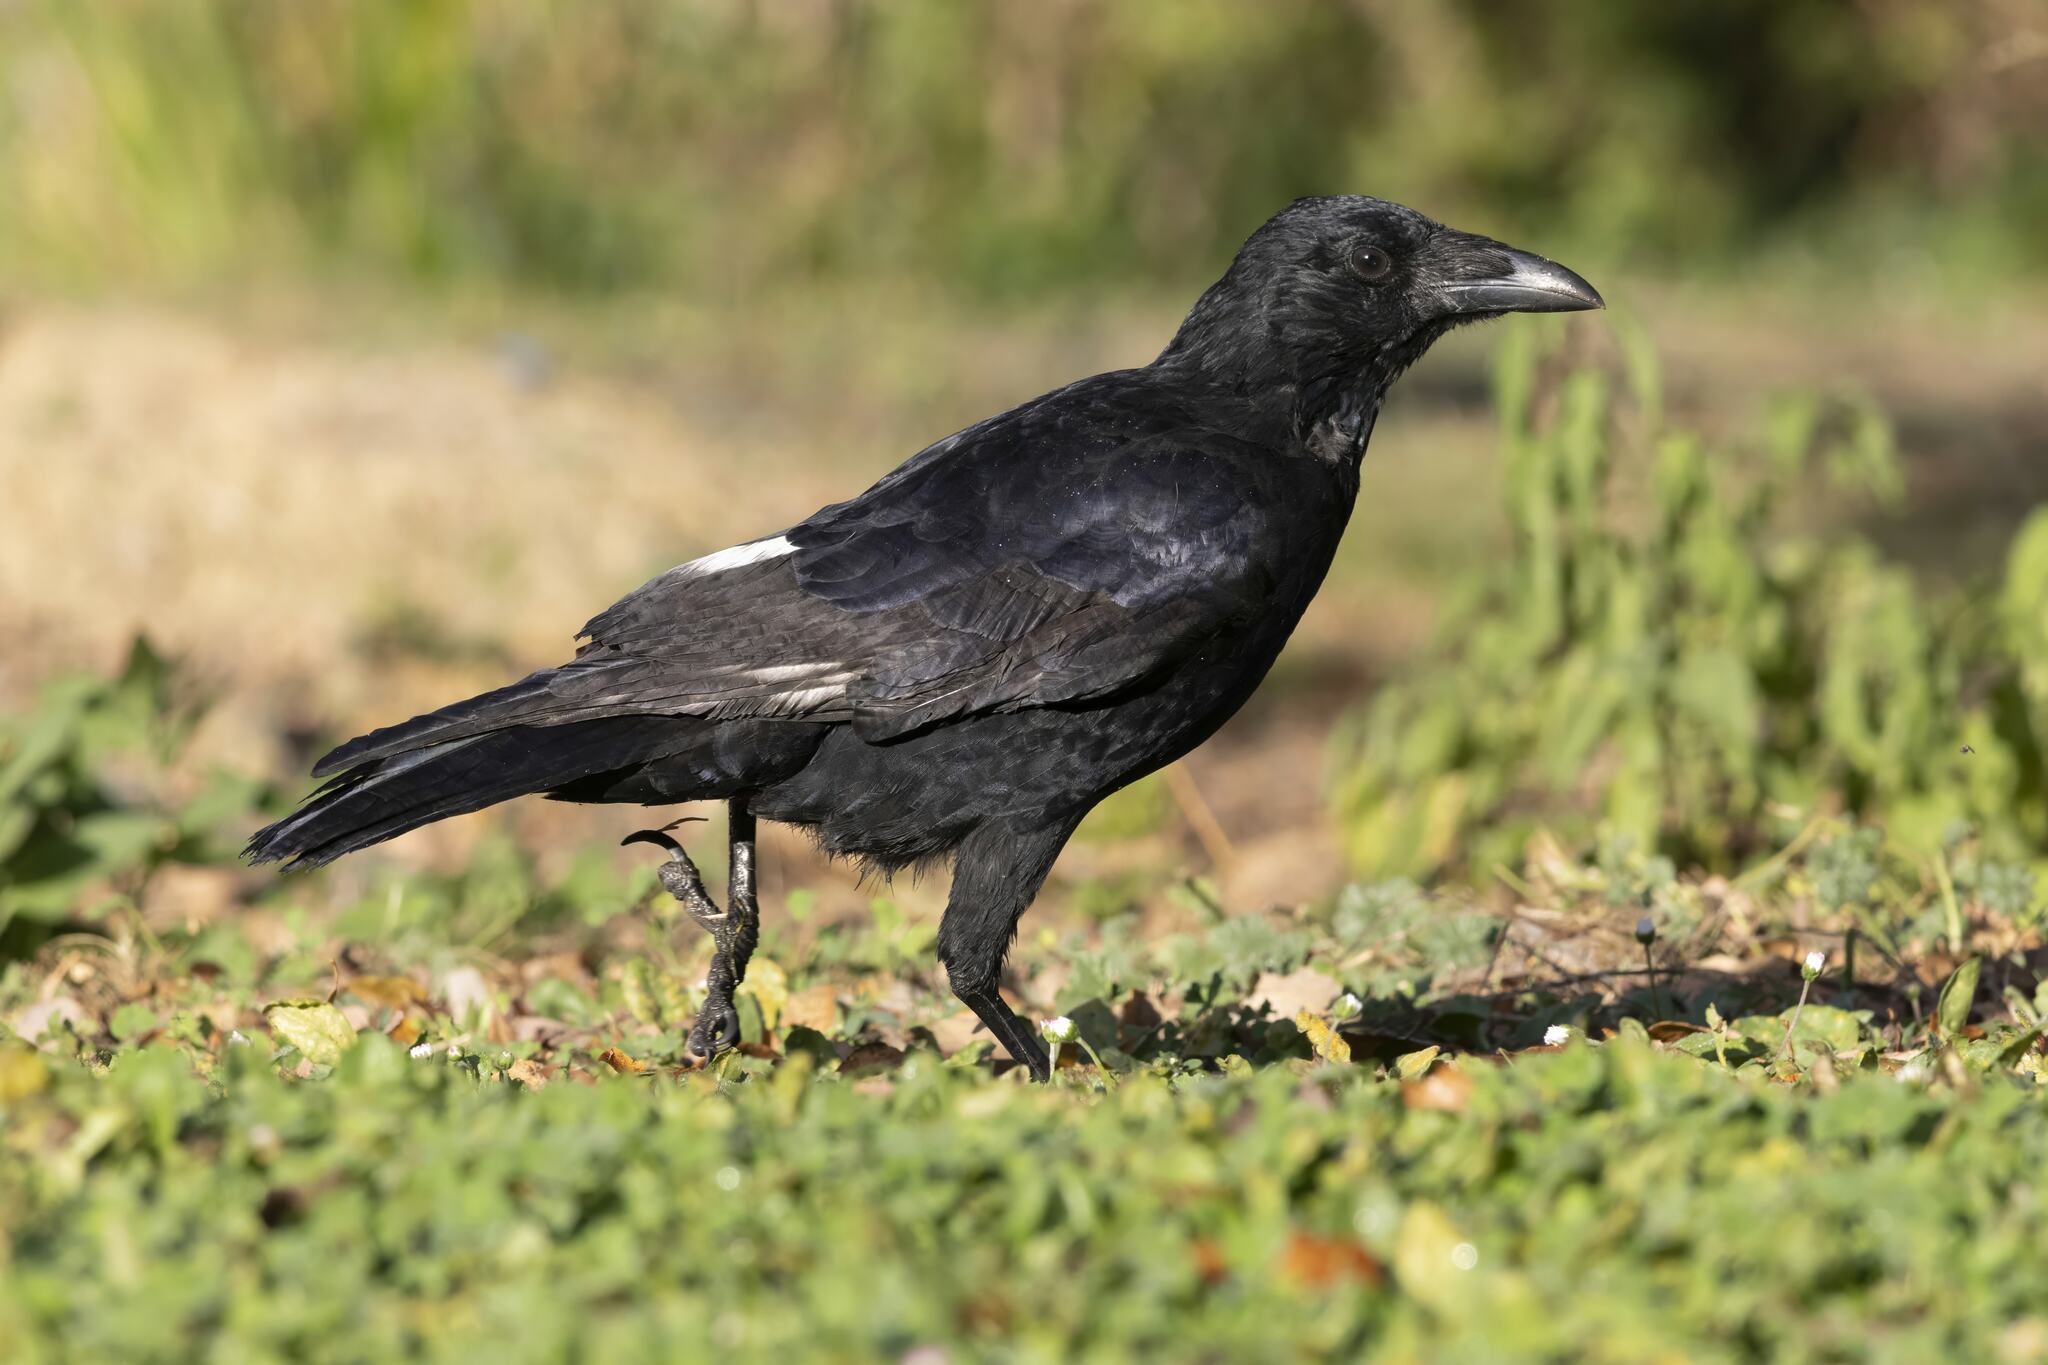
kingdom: Animalia
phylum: Chordata
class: Aves
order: Passeriformes
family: Corvidae
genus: Corvus
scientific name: Corvus corone
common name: Carrion crow
